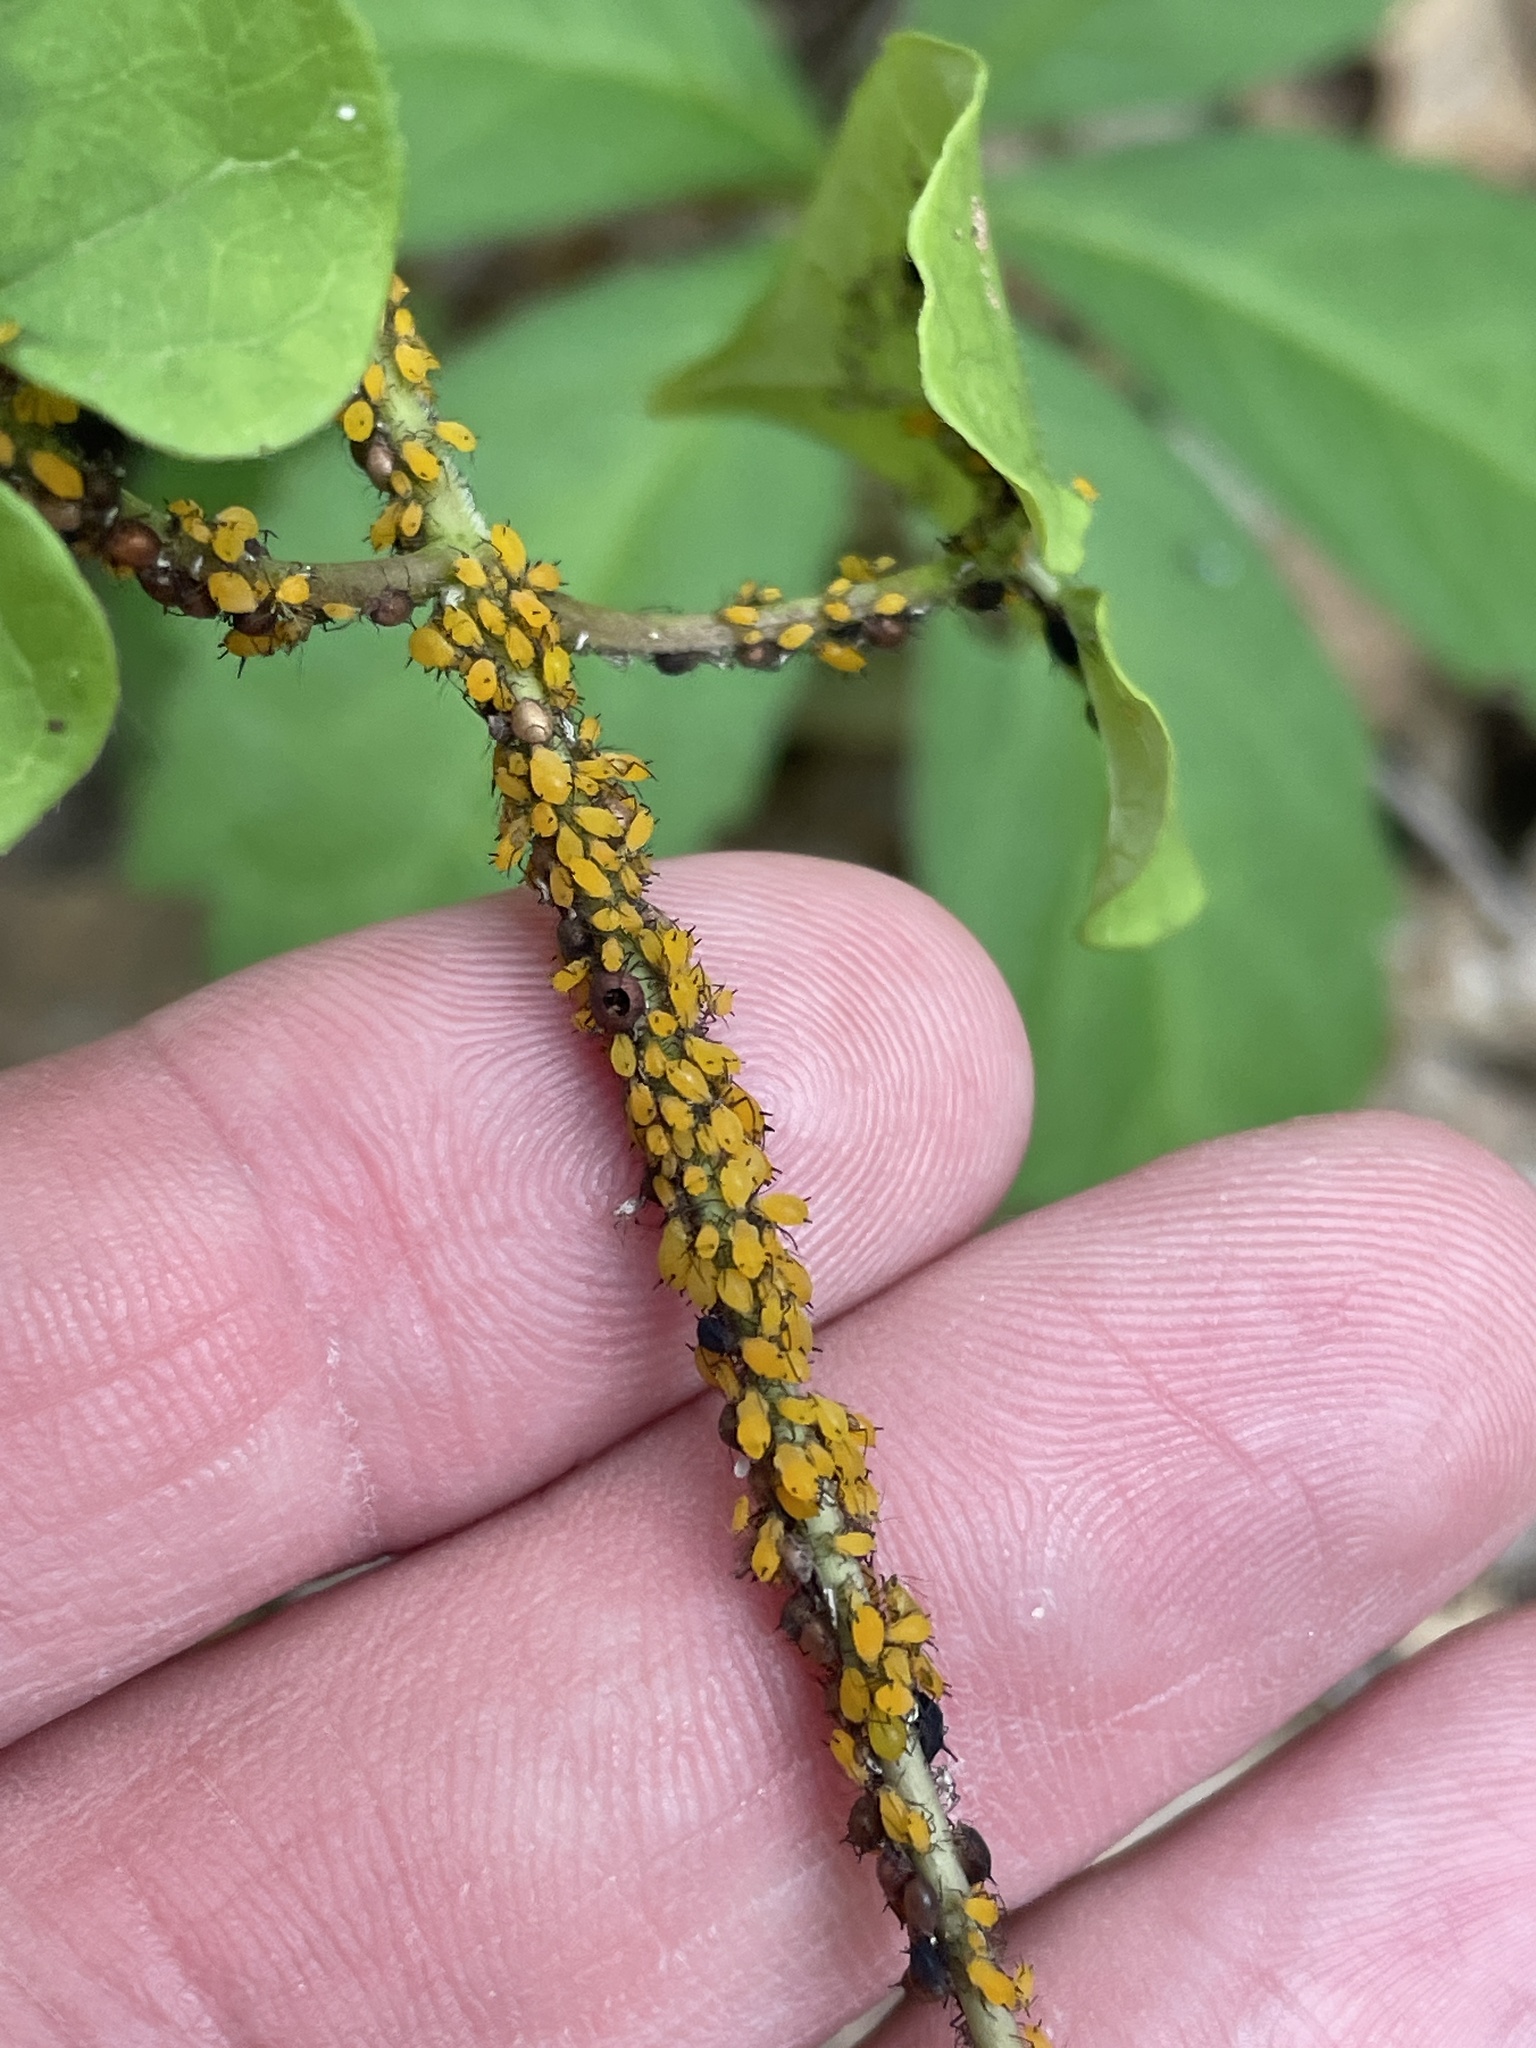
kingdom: Animalia
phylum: Arthropoda
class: Insecta
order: Hemiptera
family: Aphididae
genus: Aphis
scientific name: Aphis nerii
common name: Oleander aphid
